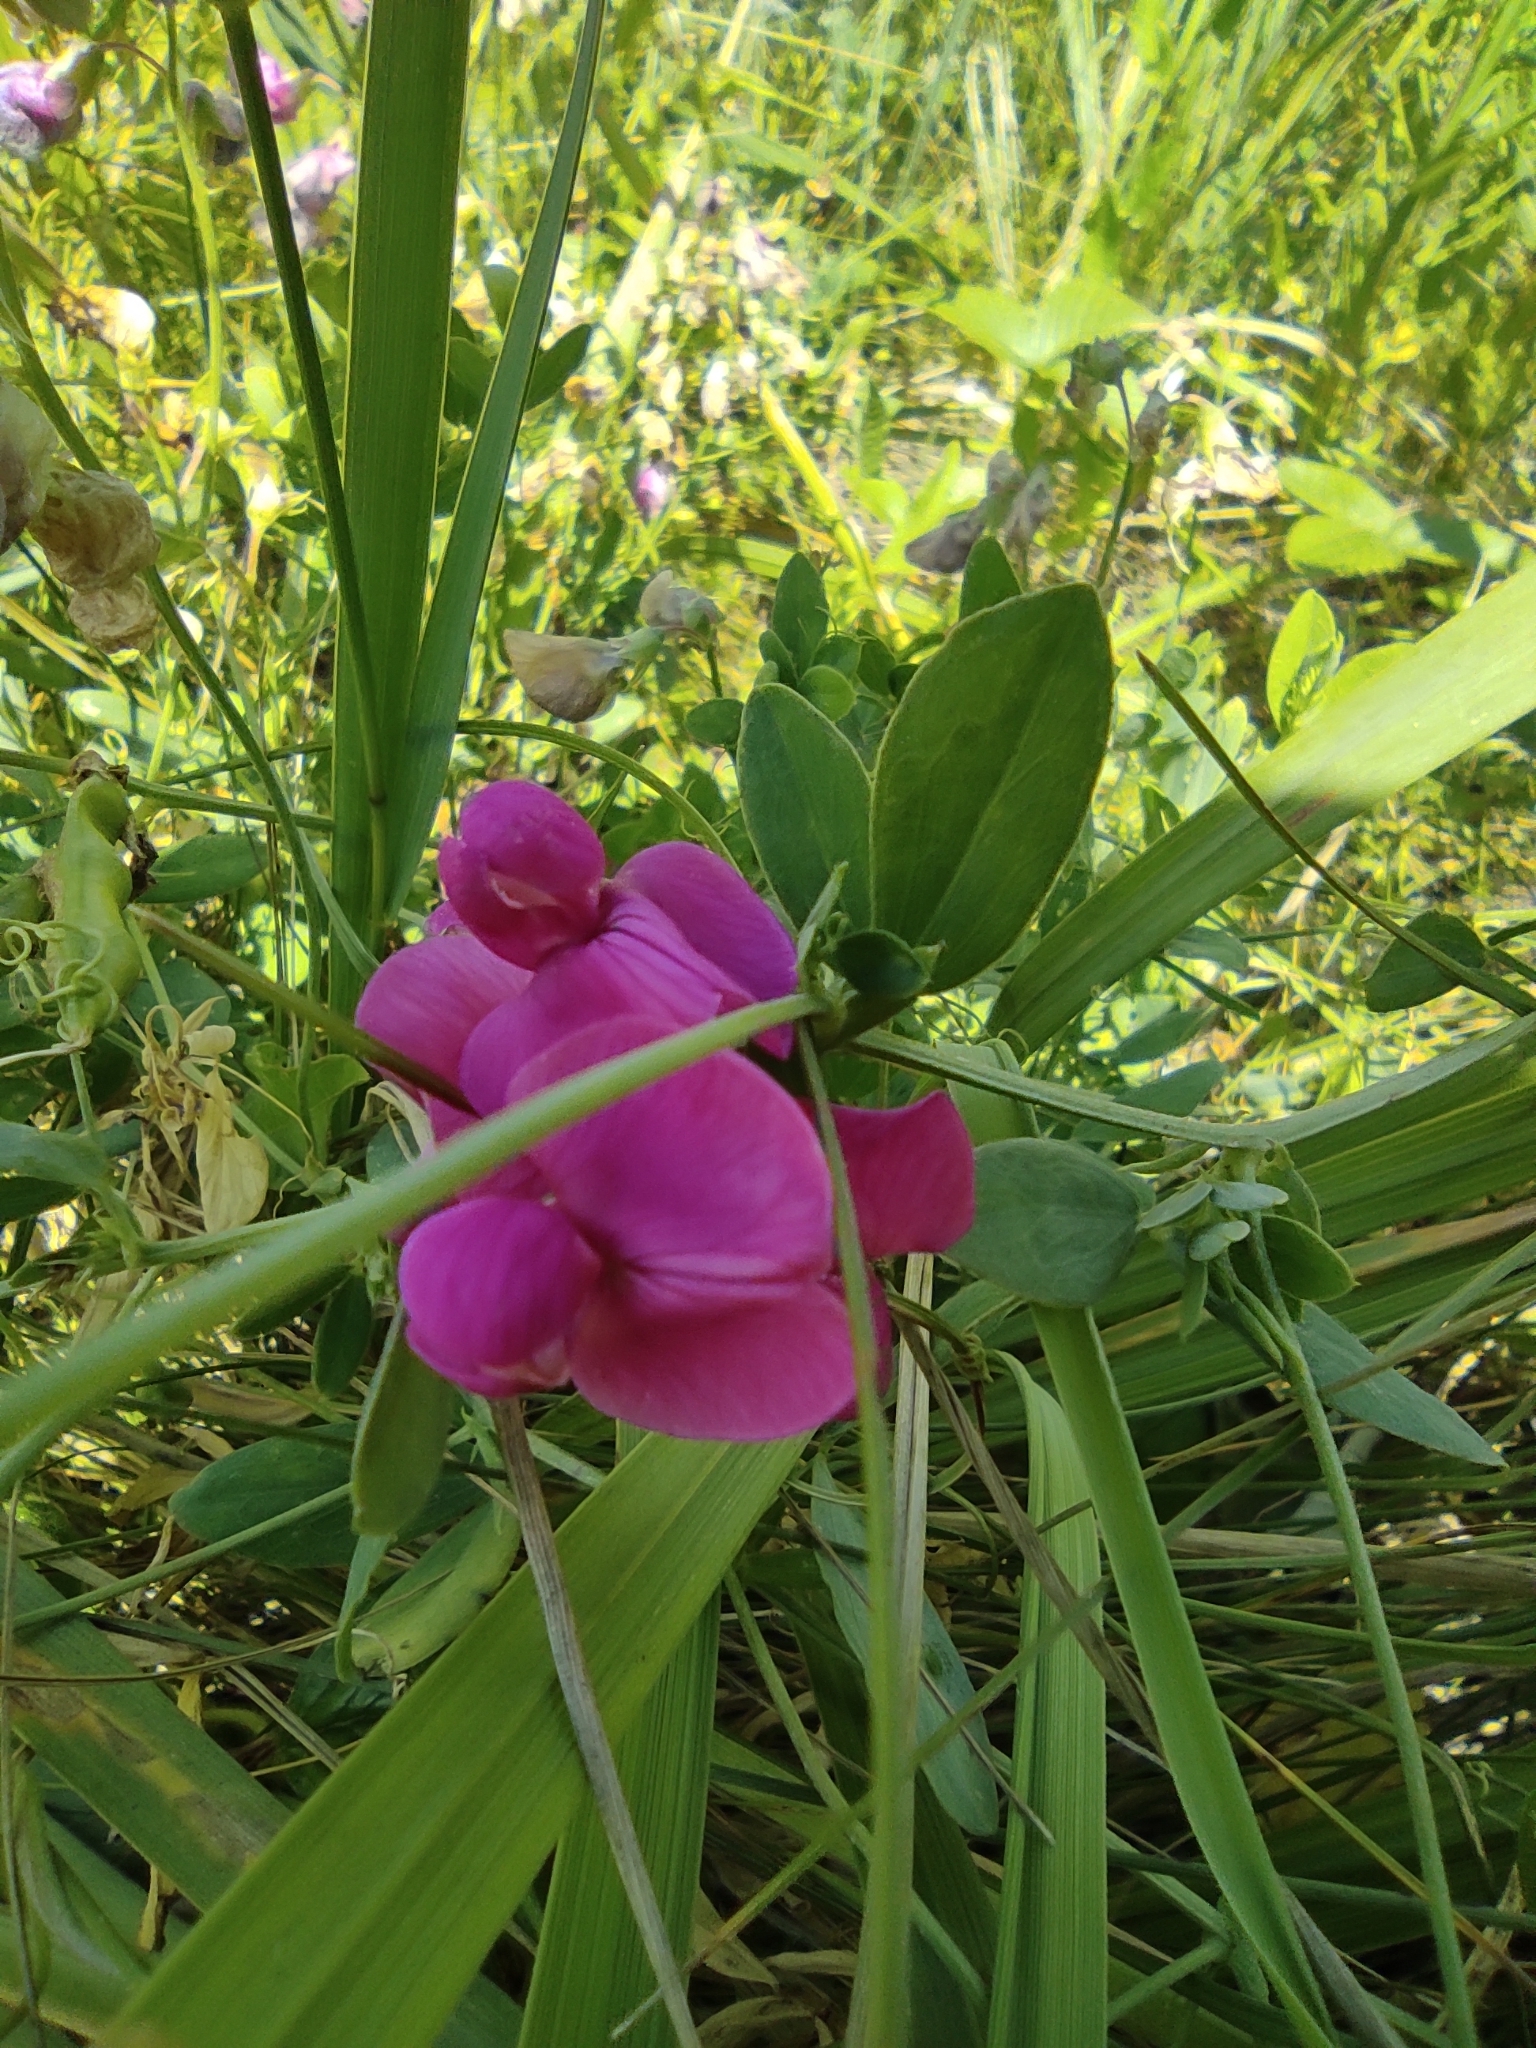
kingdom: Plantae
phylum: Tracheophyta
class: Magnoliopsida
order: Fabales
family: Fabaceae
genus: Lathyrus
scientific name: Lathyrus tuberosus
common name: Tuberous pea
